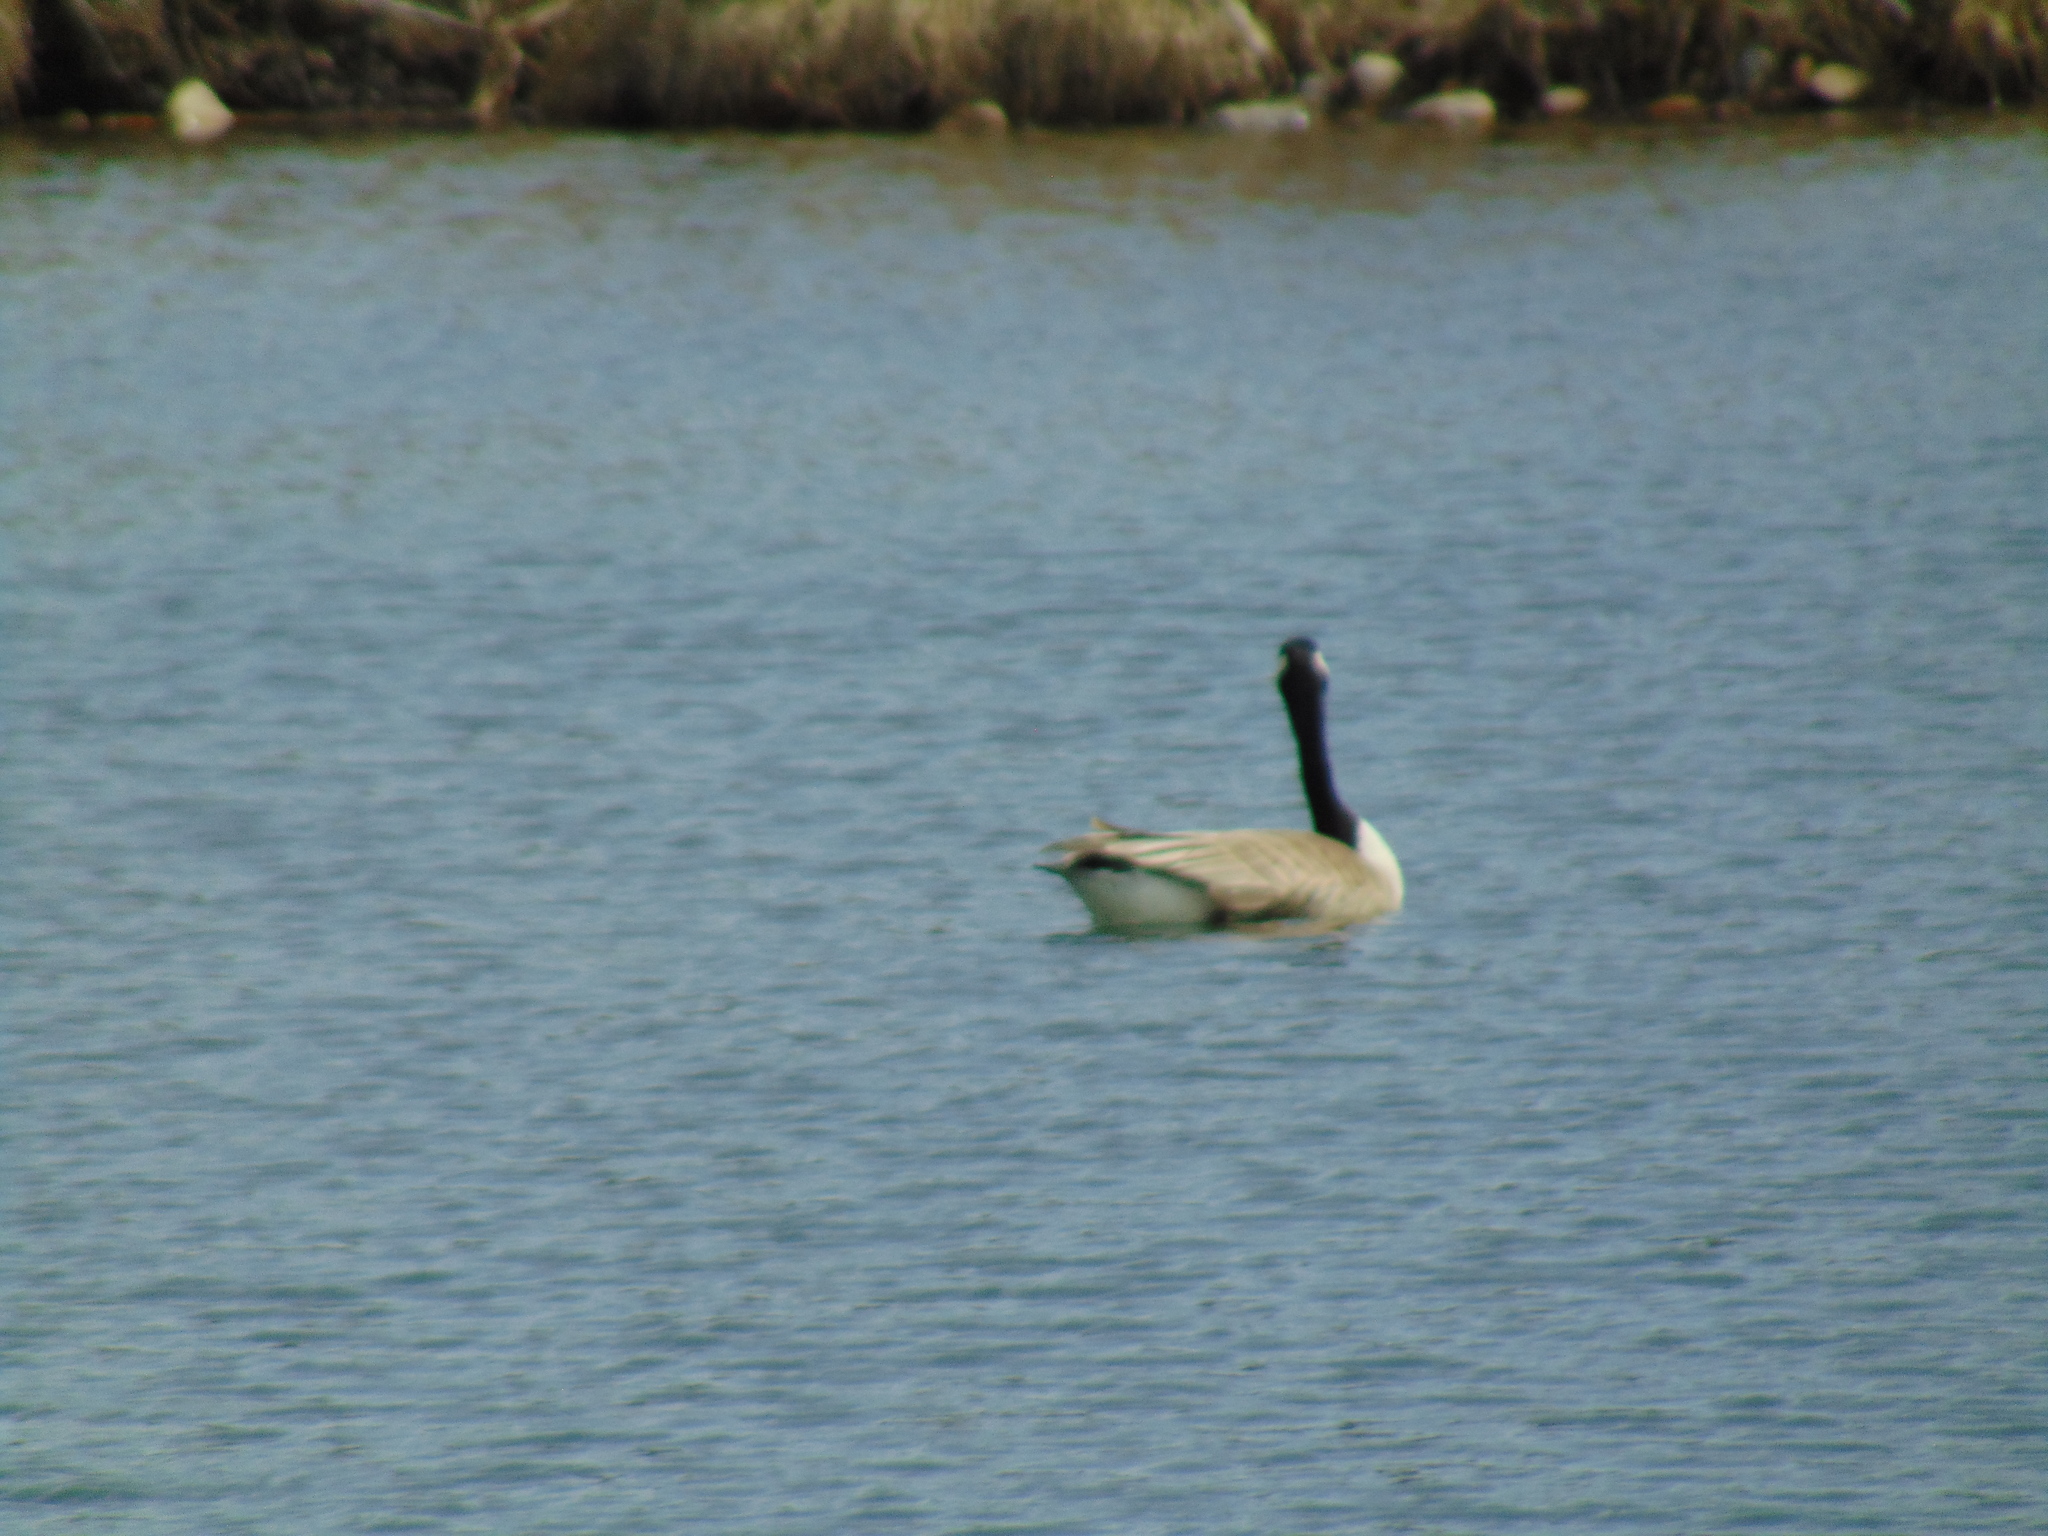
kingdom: Animalia
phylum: Chordata
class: Aves
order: Anseriformes
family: Anatidae
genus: Branta
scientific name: Branta canadensis
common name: Canada goose
